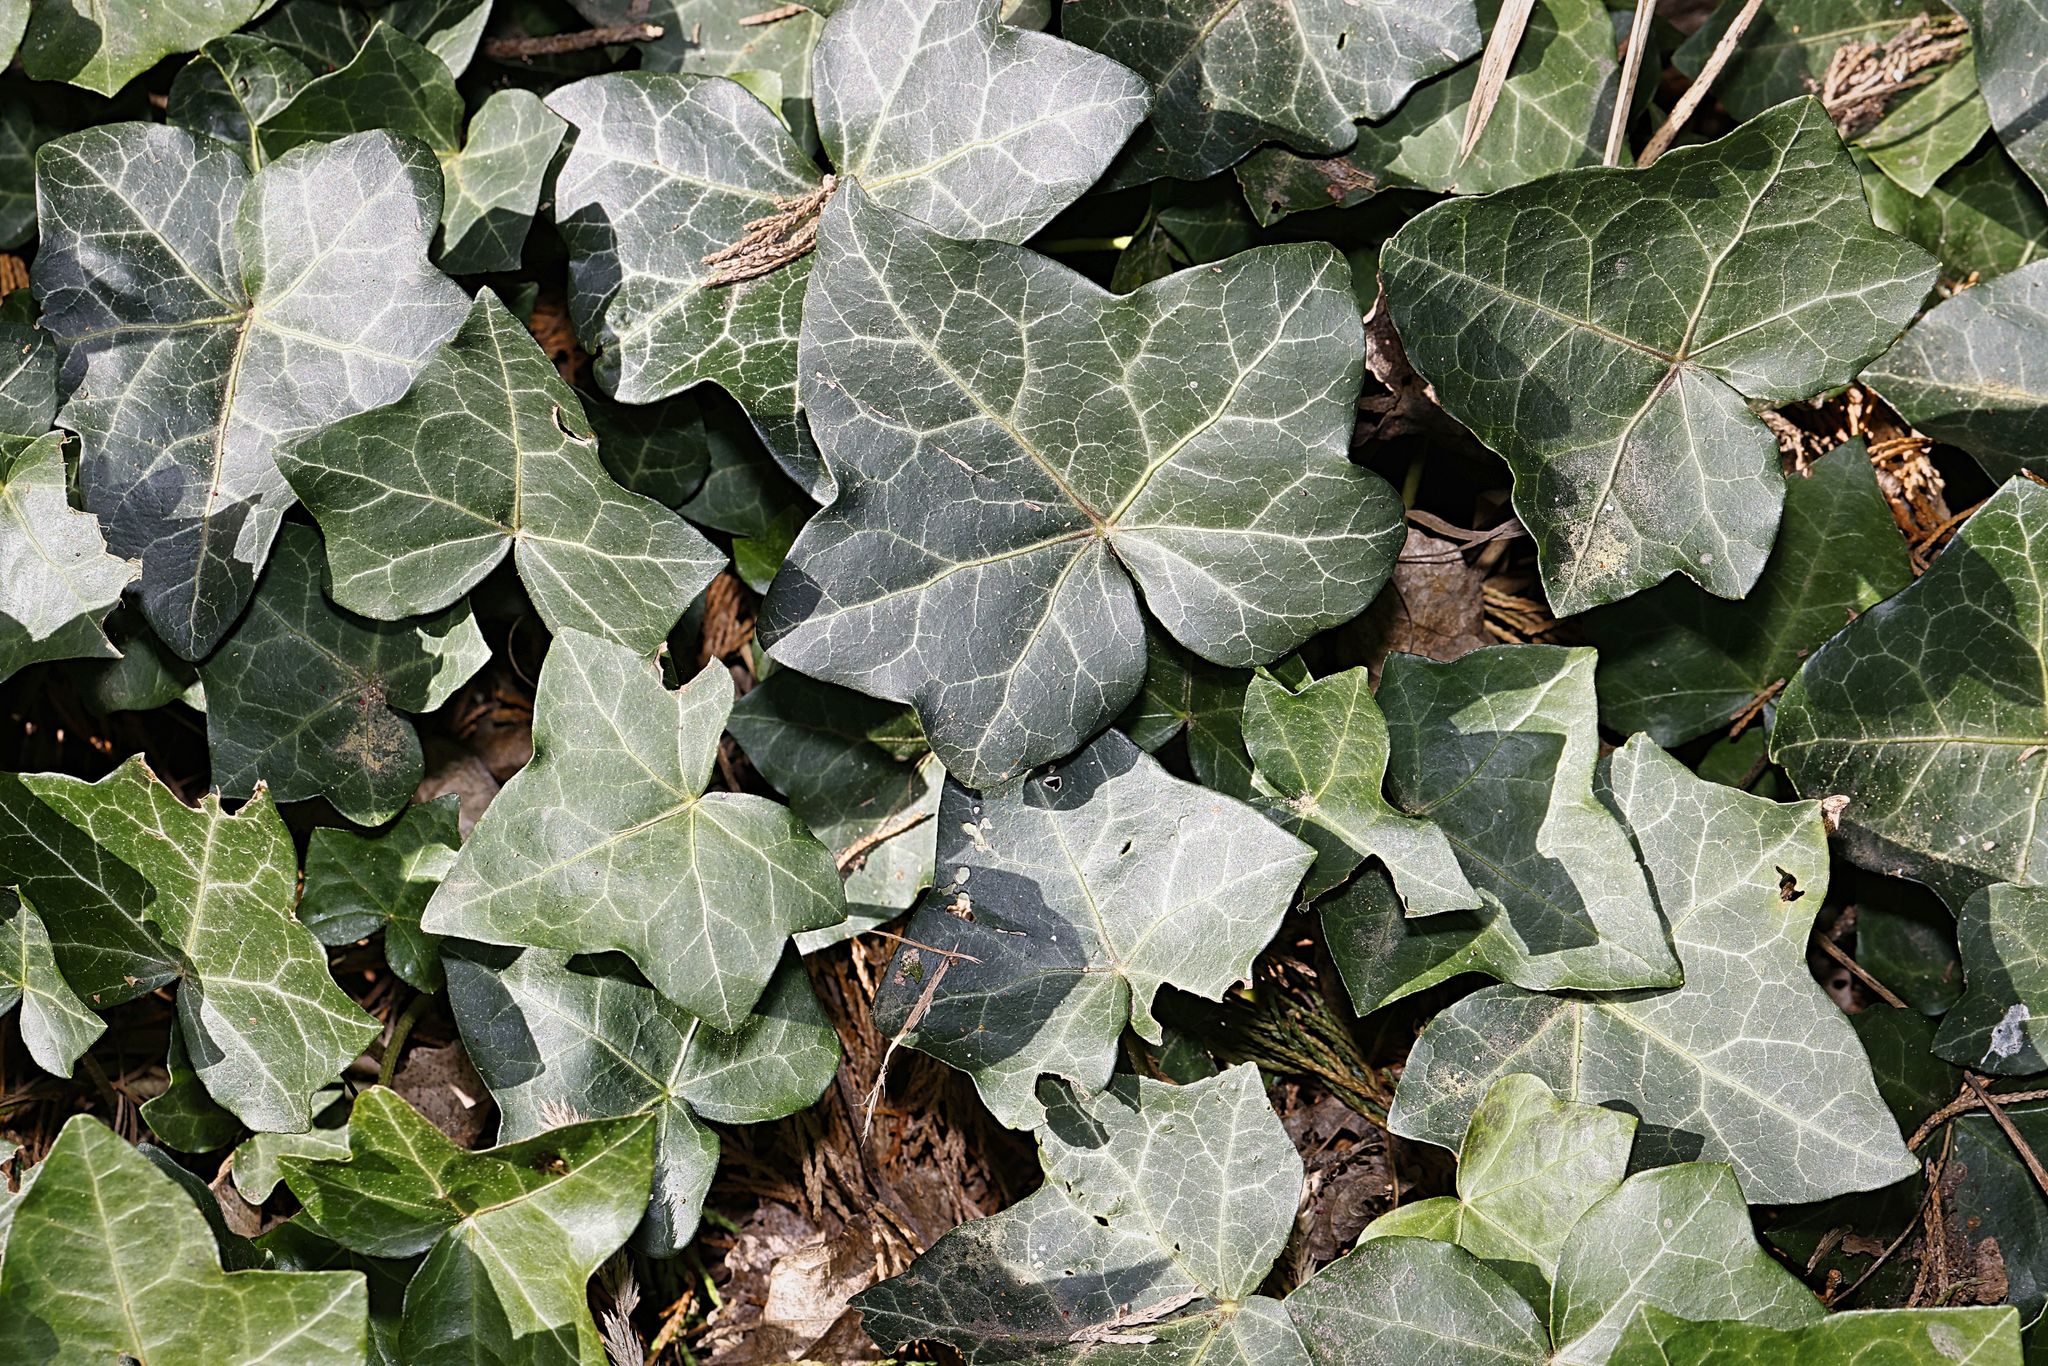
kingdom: Plantae
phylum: Tracheophyta
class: Magnoliopsida
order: Apiales
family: Araliaceae
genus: Hedera
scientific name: Hedera helix
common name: Ivy
